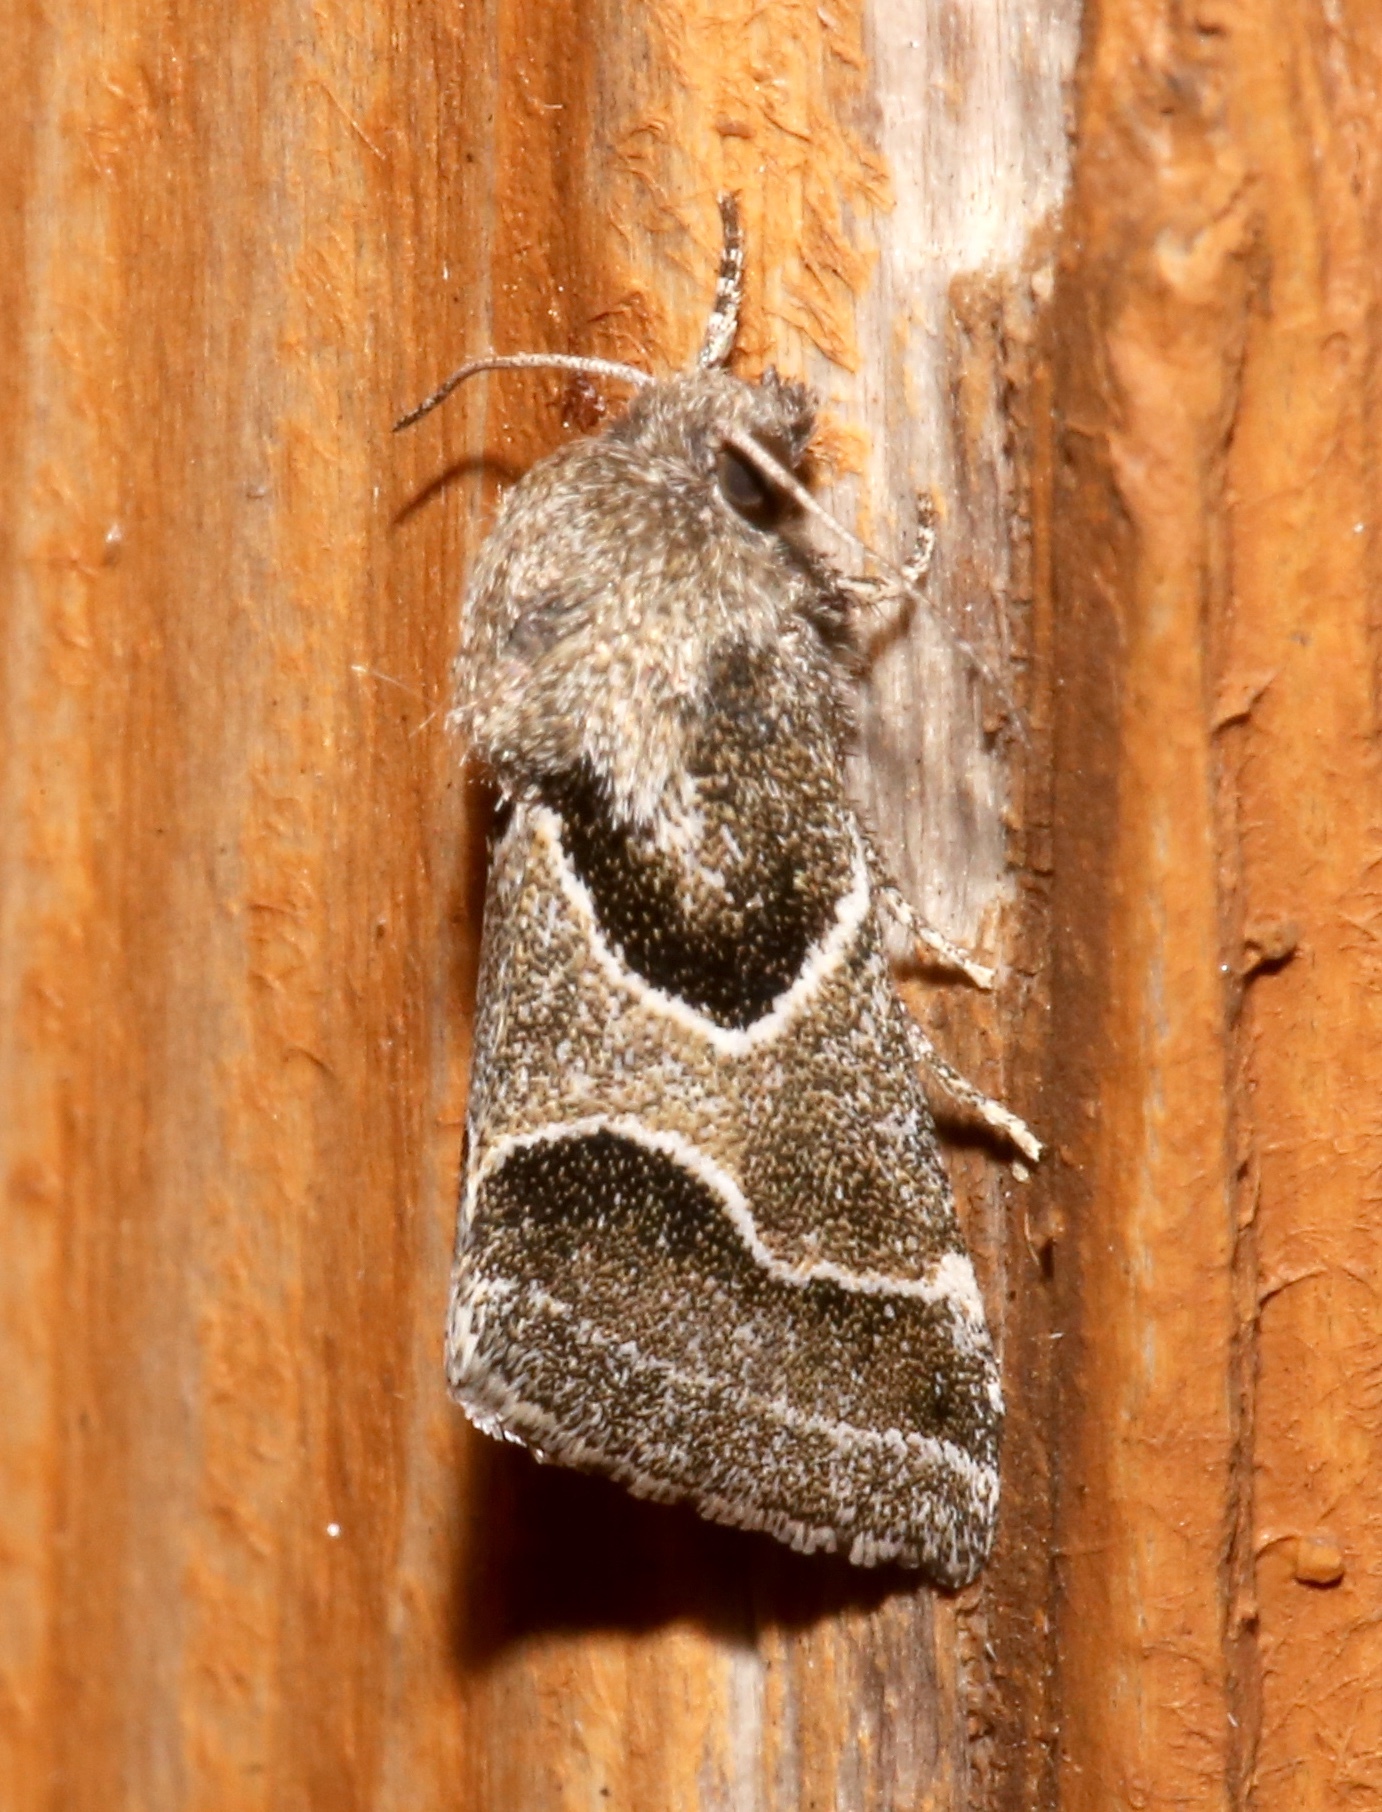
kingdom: Animalia
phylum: Arthropoda
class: Insecta
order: Lepidoptera
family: Noctuidae
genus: Schinia
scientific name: Schinia rivulosa
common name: Scarce meal-moth
